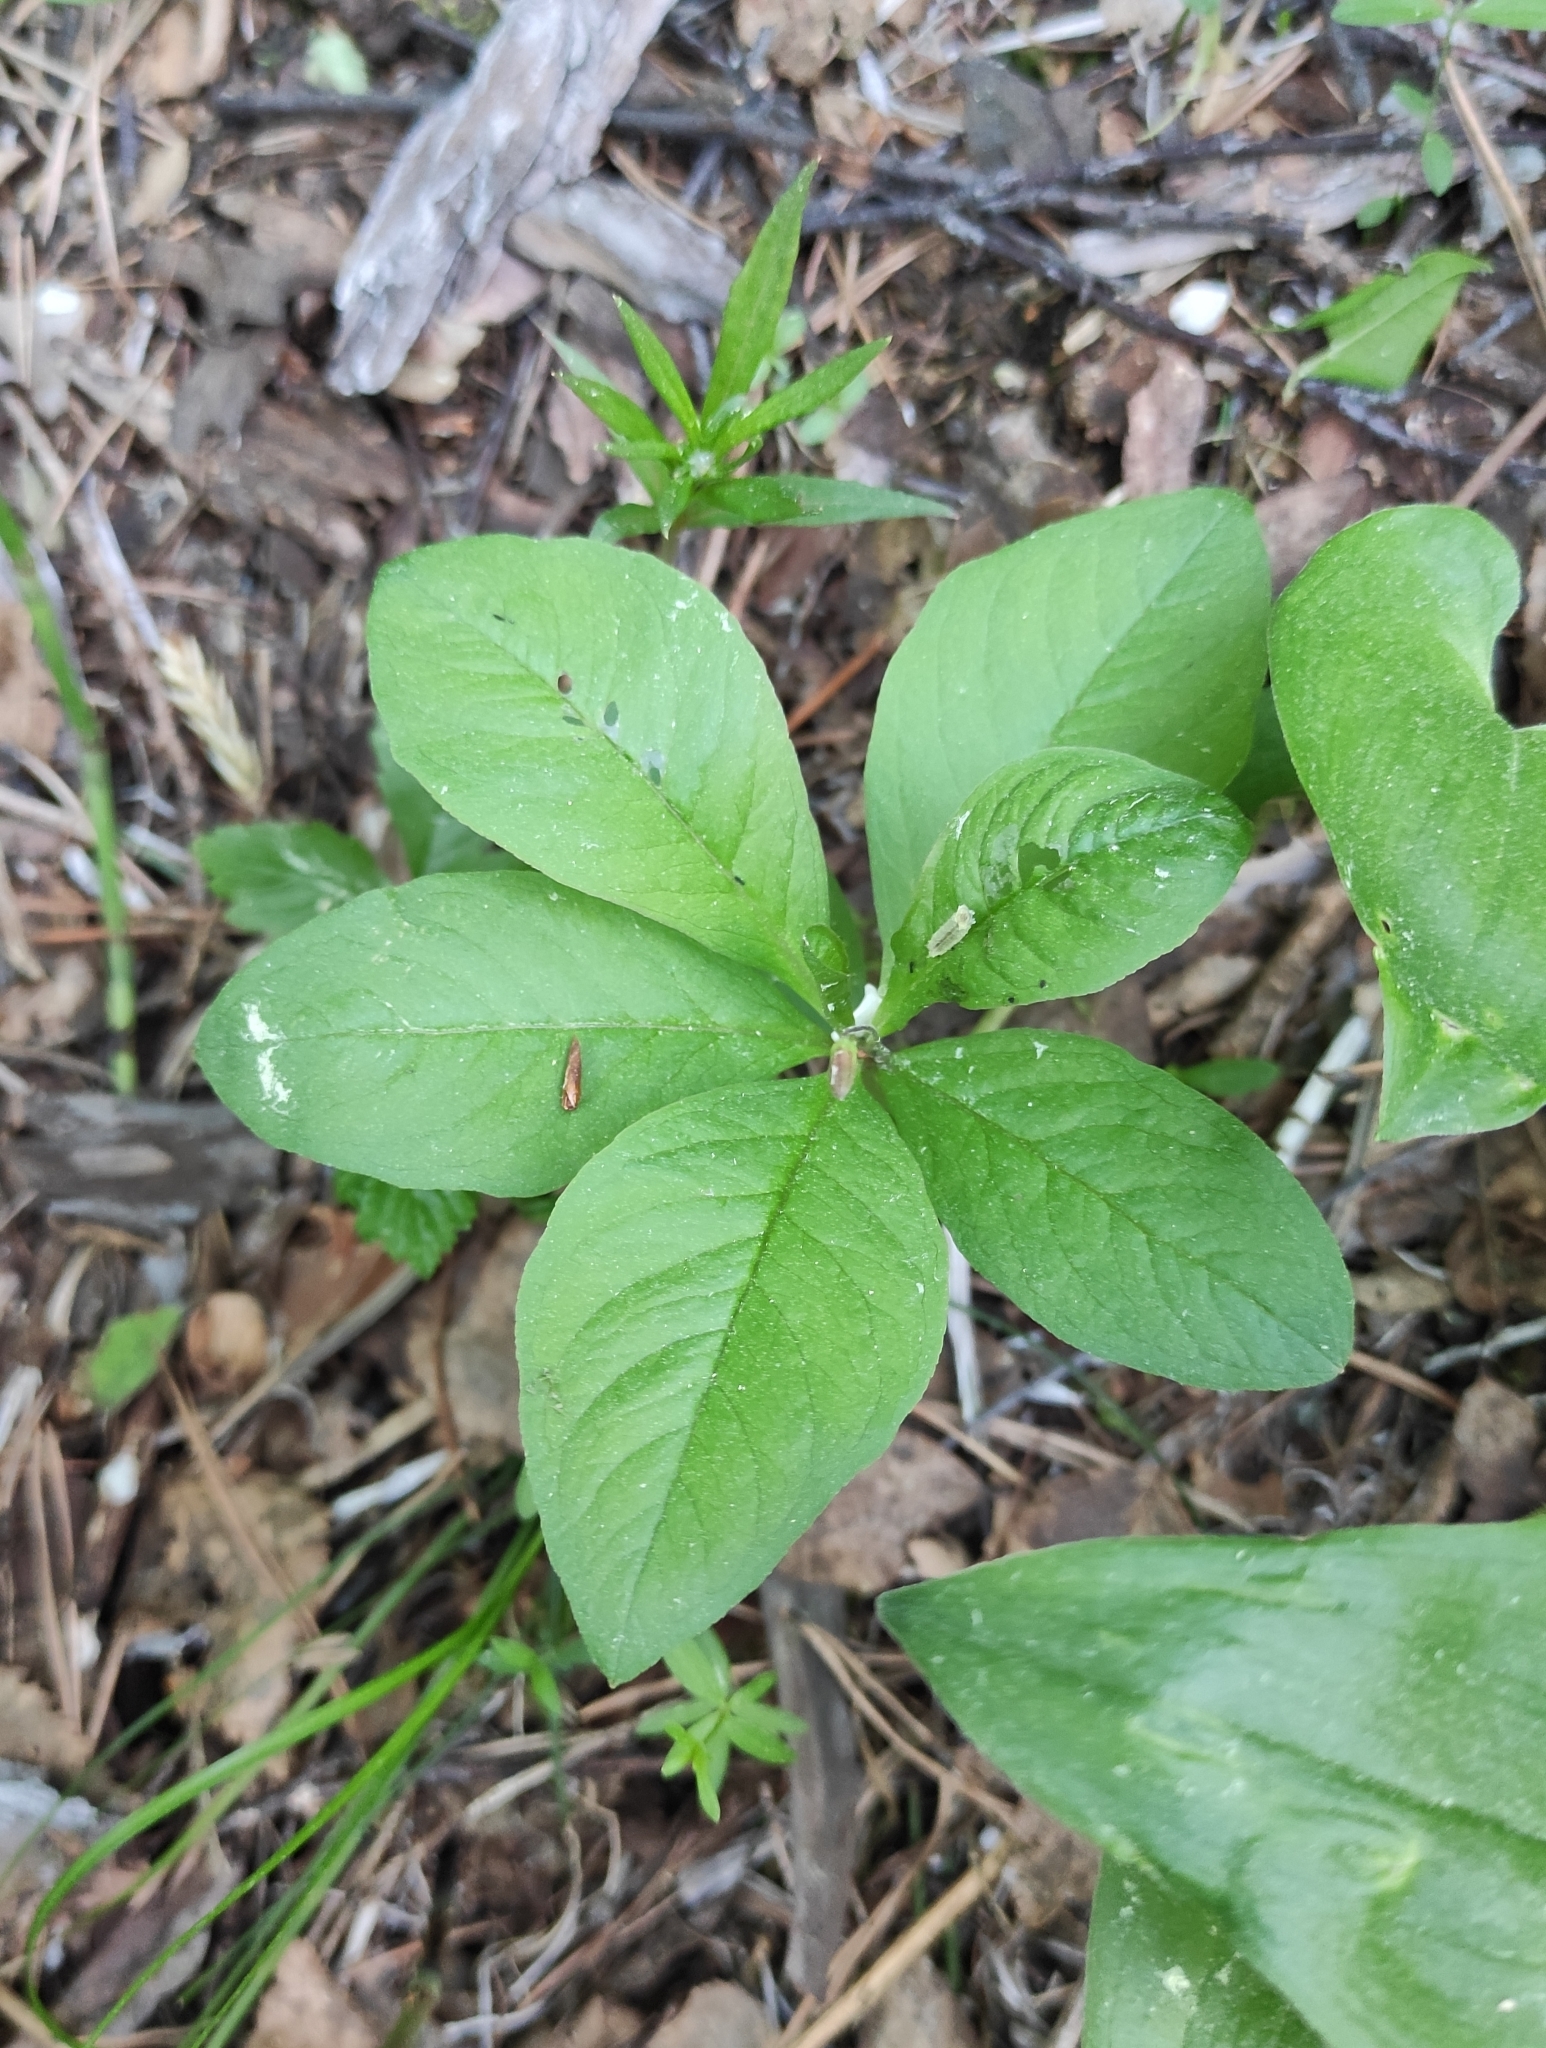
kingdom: Plantae
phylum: Tracheophyta
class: Magnoliopsida
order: Ericales
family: Primulaceae
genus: Lysimachia
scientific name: Lysimachia europaea
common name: Arctic starflower
